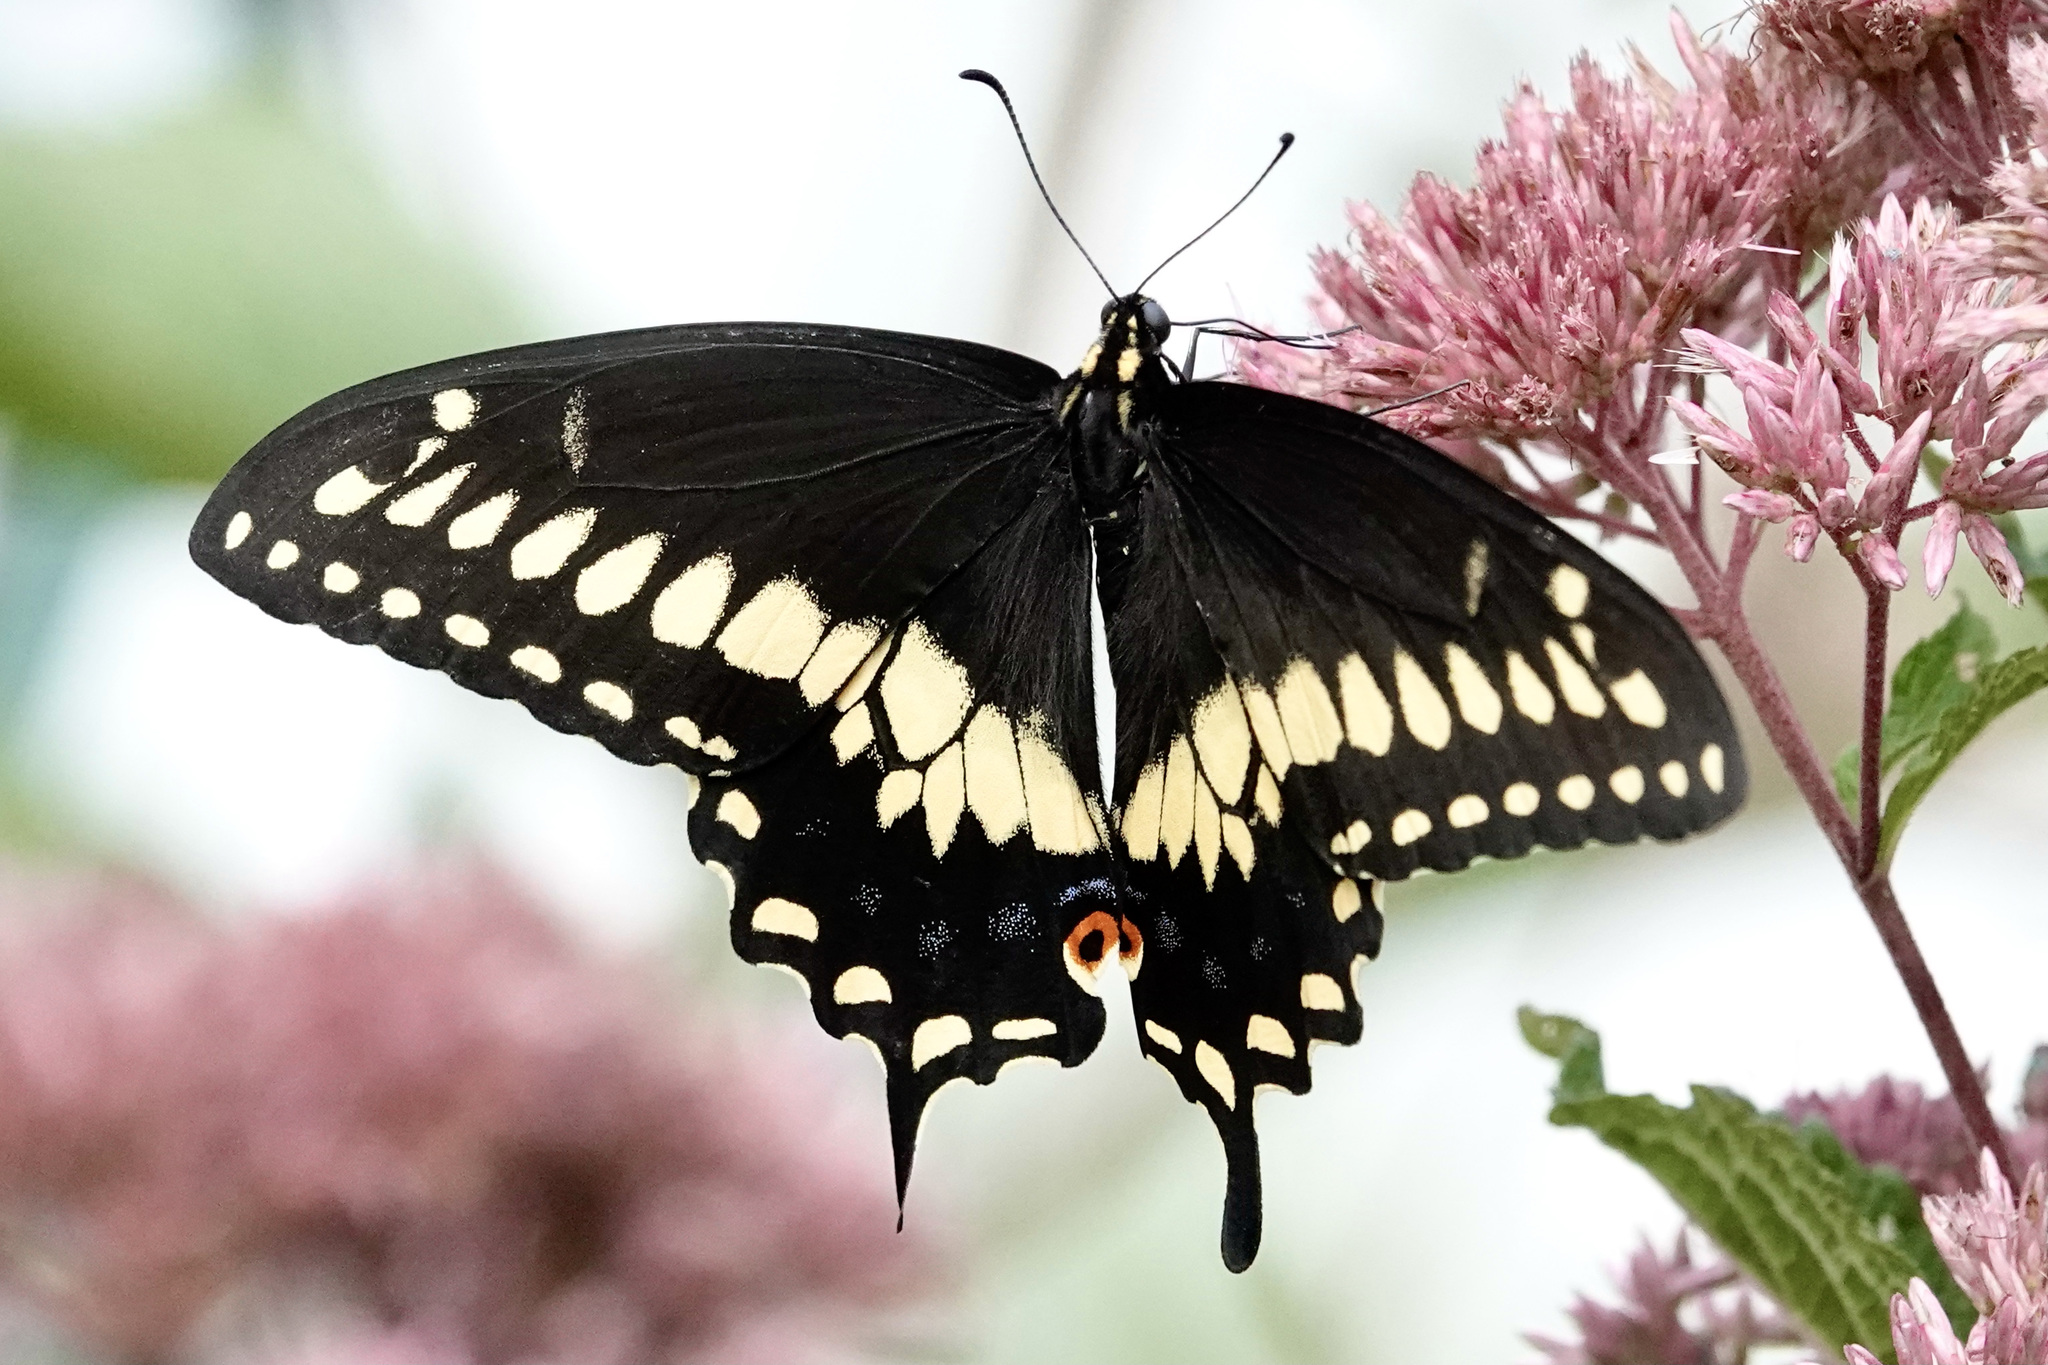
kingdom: Animalia
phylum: Arthropoda
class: Insecta
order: Lepidoptera
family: Papilionidae
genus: Papilio
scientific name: Papilio polyxenes
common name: Black swallowtail
